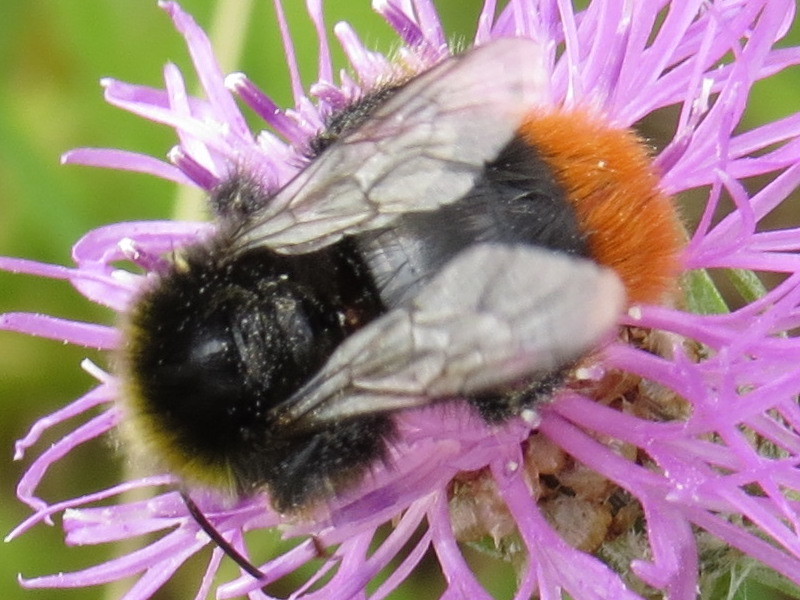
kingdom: Animalia
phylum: Arthropoda
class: Insecta
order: Hymenoptera
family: Apidae
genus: Bombus
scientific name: Bombus lapidarius
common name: Large red-tailed humble-bee
